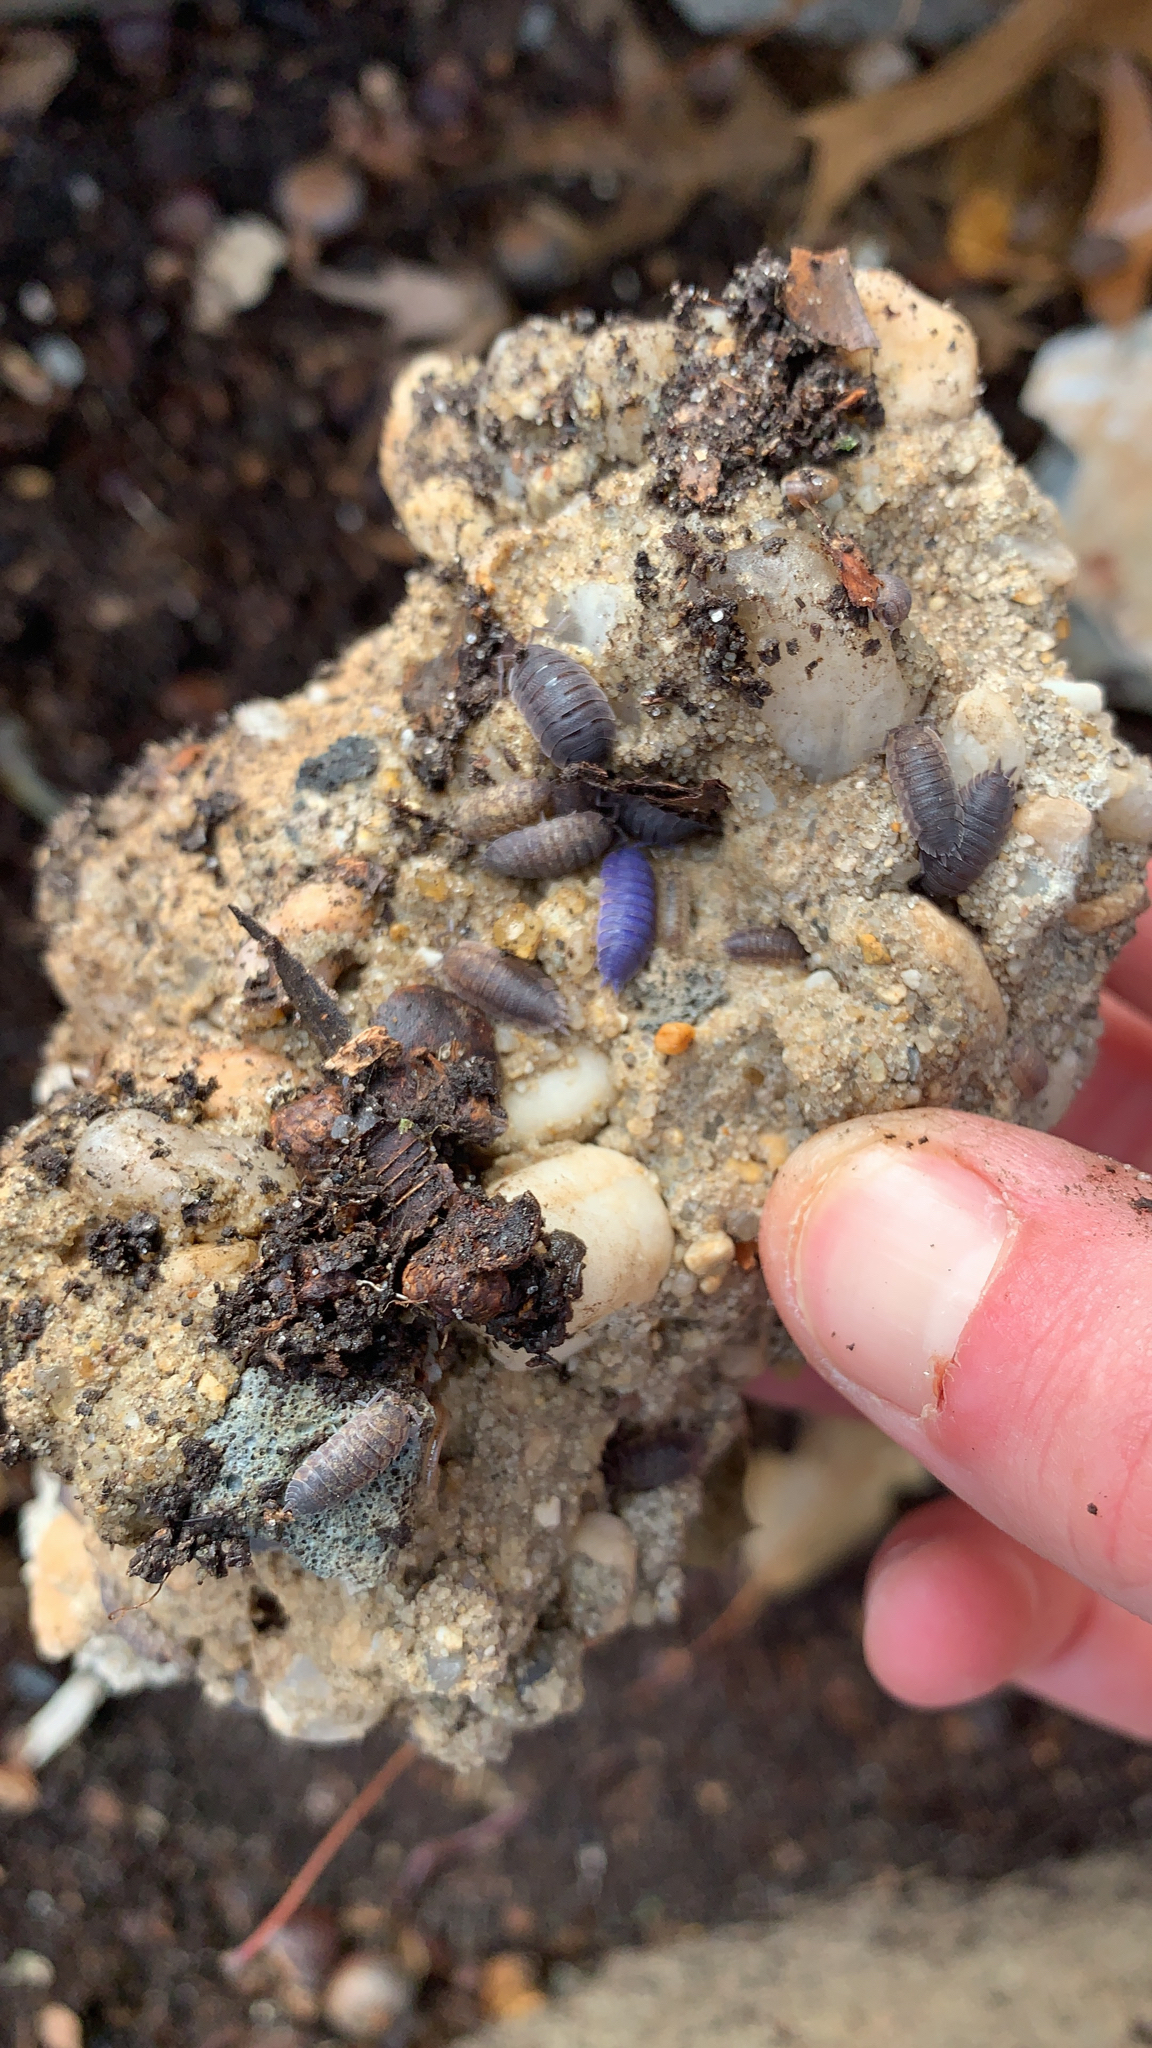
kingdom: Animalia
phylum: Arthropoda
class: Malacostraca
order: Isopoda
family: Porcellionidae
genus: Porcellio
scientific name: Porcellio scaber
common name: Common rough woodlouse
